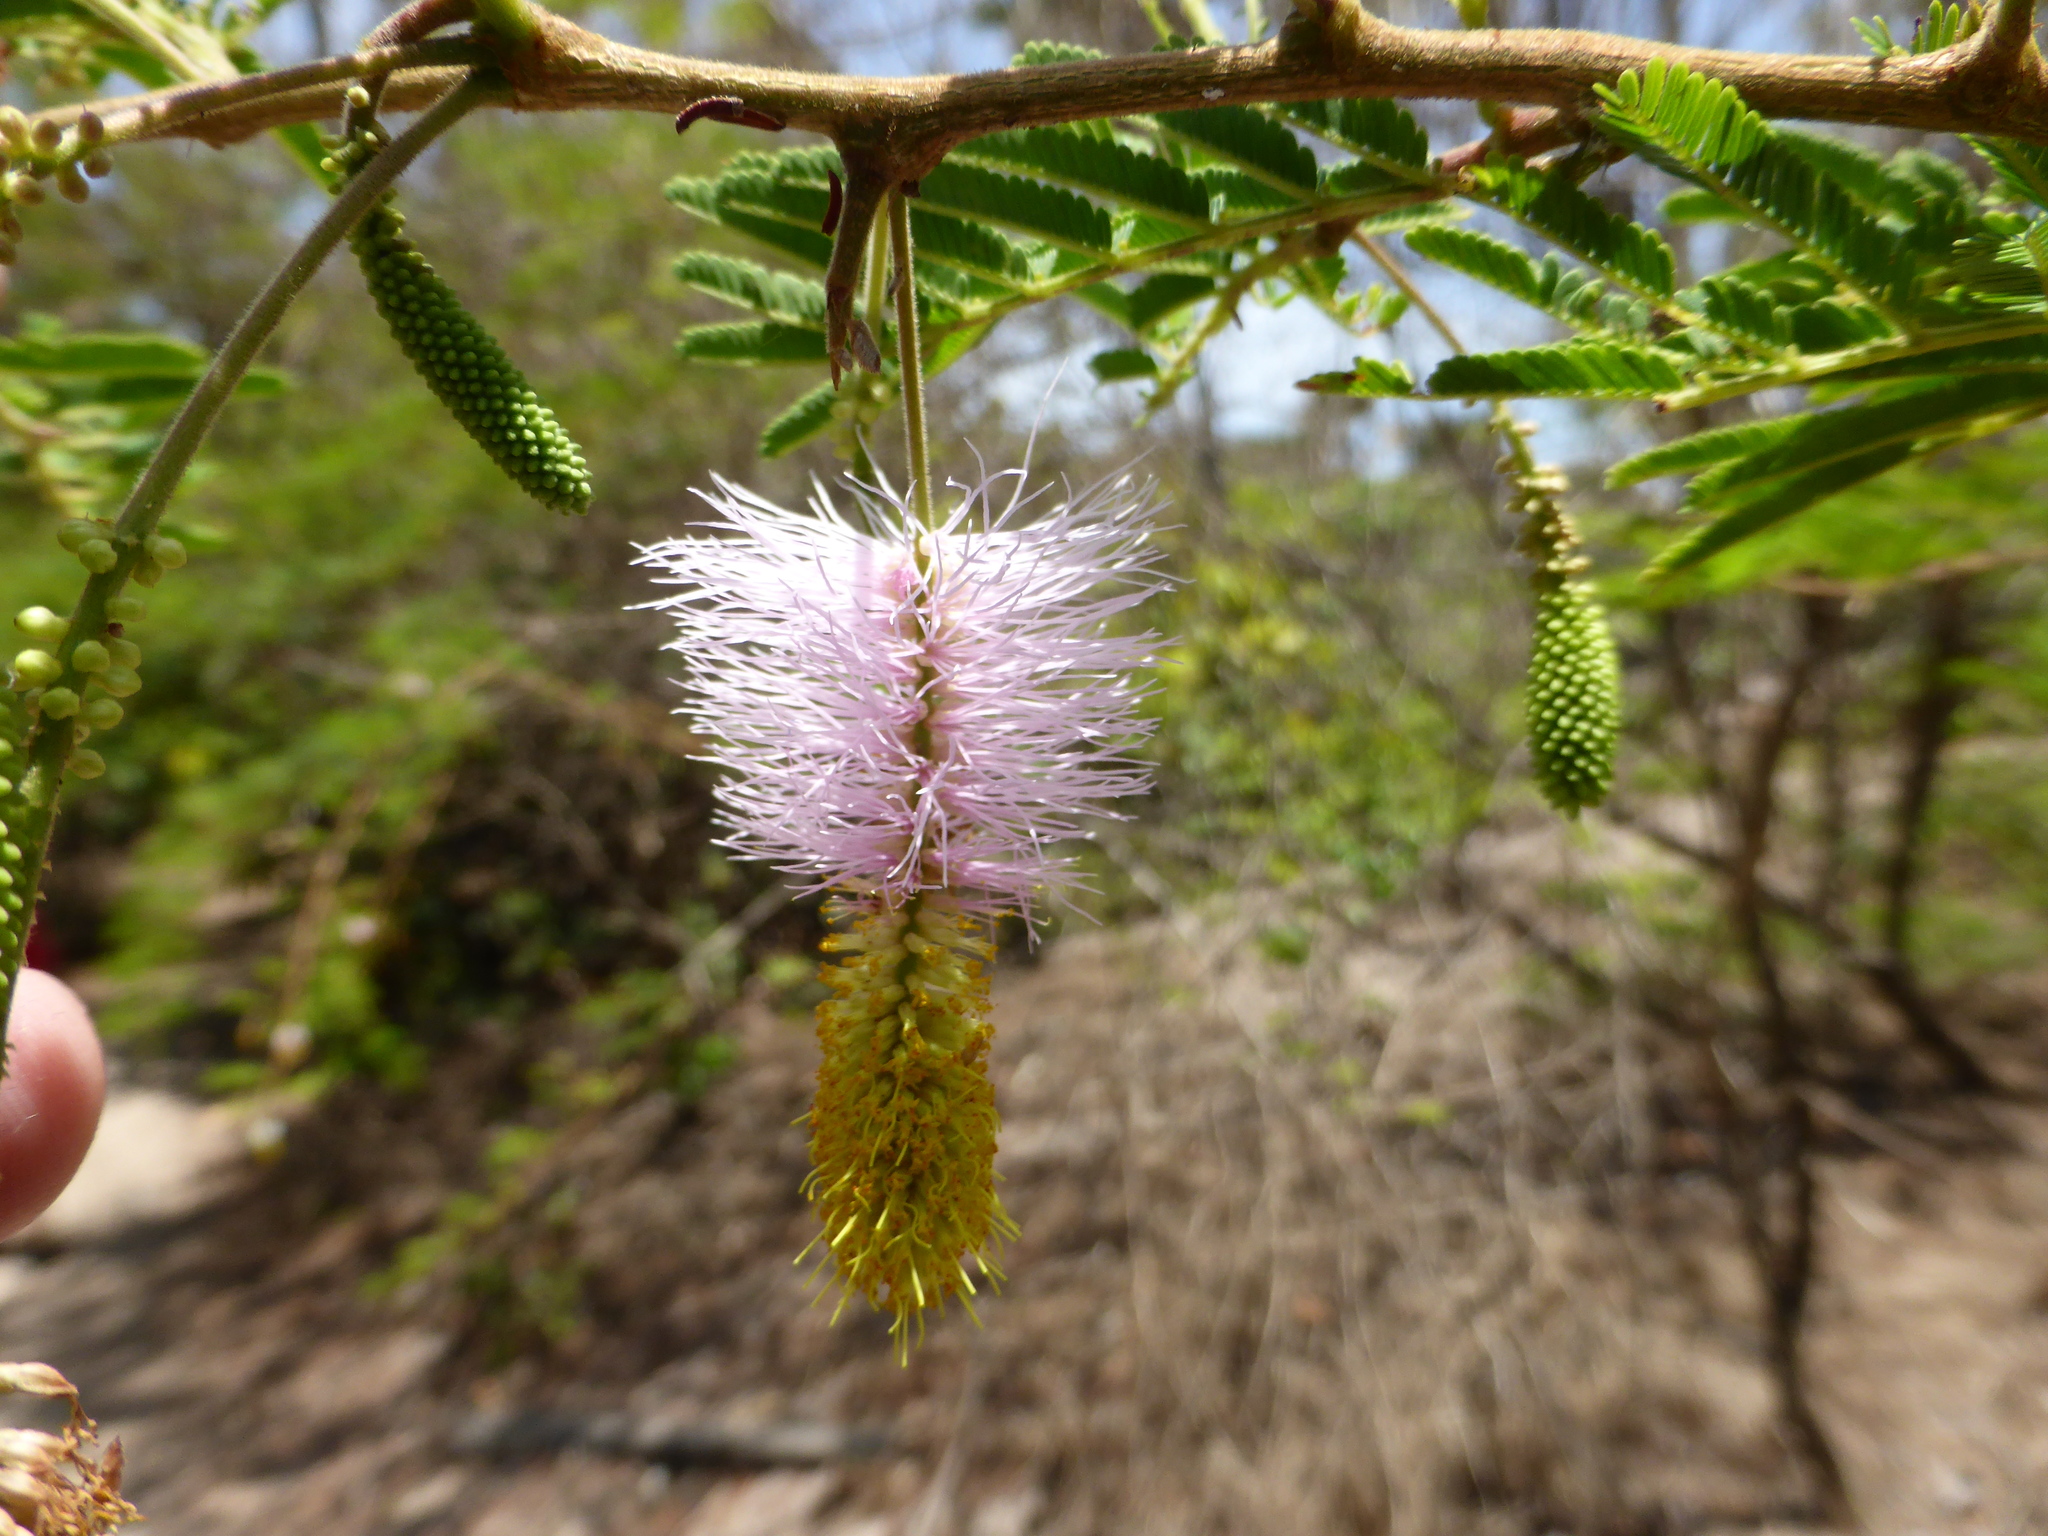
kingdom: Plantae
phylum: Tracheophyta
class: Magnoliopsida
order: Fabales
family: Fabaceae
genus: Dichrostachys
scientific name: Dichrostachys cinerea
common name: Sicklebush
